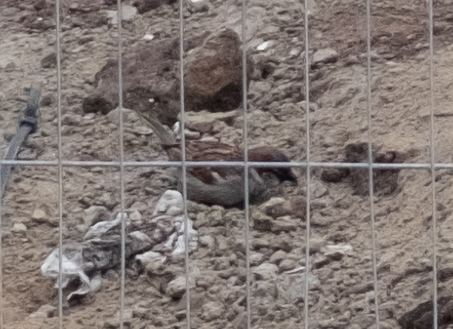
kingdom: Animalia
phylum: Chordata
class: Aves
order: Passeriformes
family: Passeridae
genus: Passer
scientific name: Passer domesticus
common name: House sparrow
